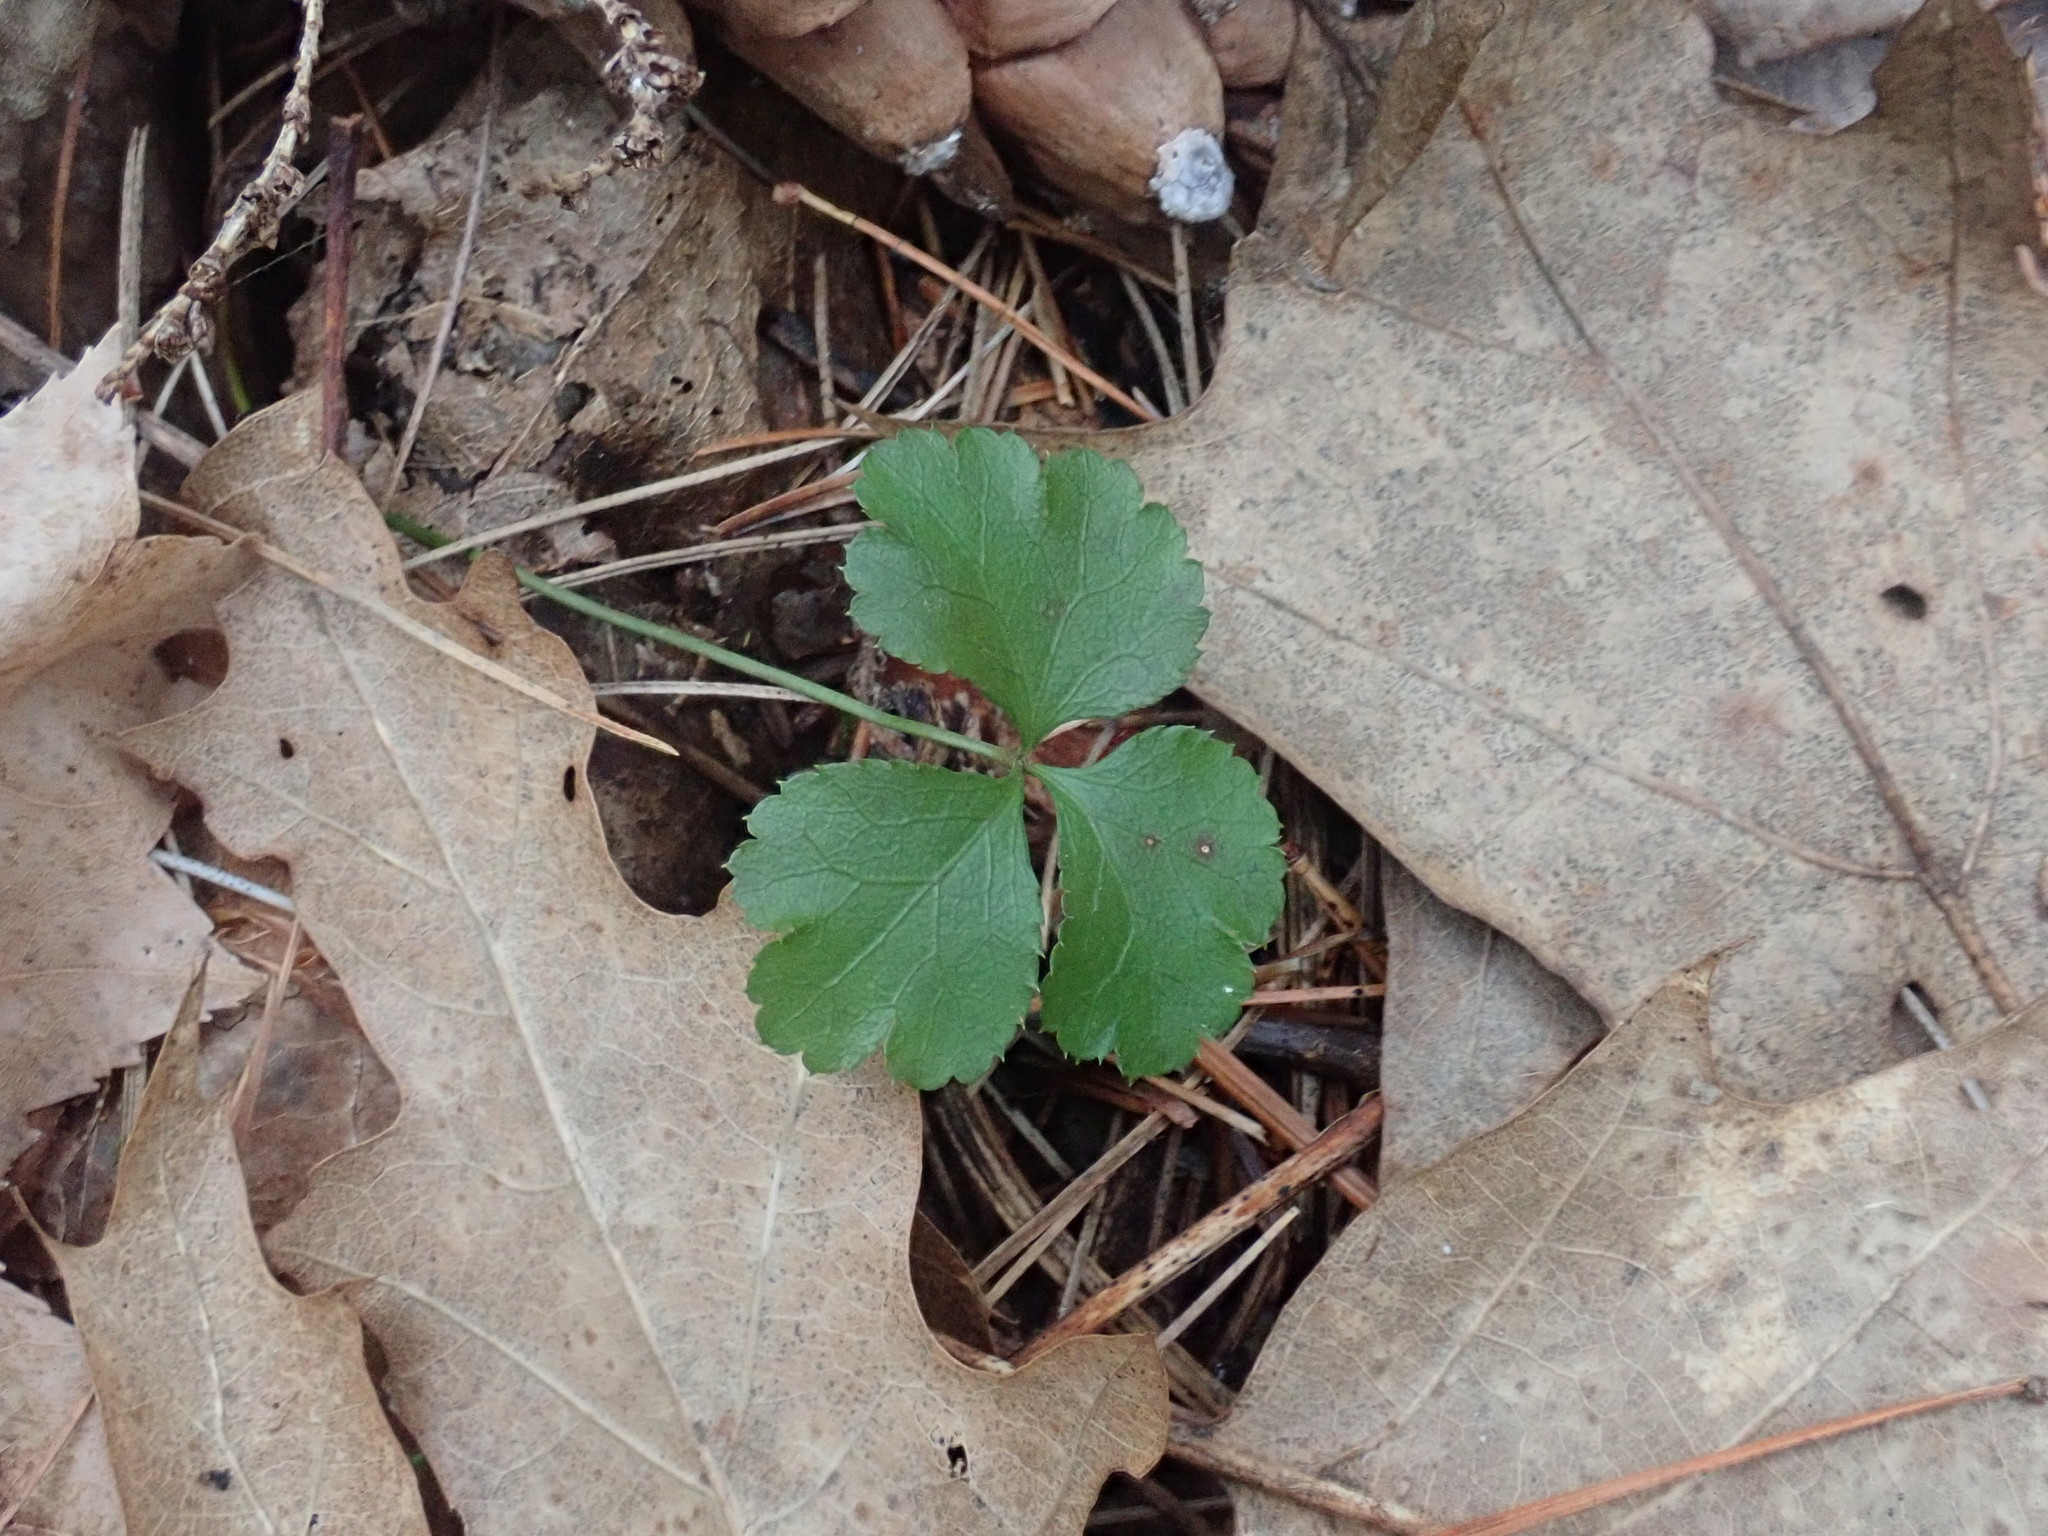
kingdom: Plantae
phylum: Tracheophyta
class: Magnoliopsida
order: Ranunculales
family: Ranunculaceae
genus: Coptis
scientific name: Coptis trifolia
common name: Canker-root
